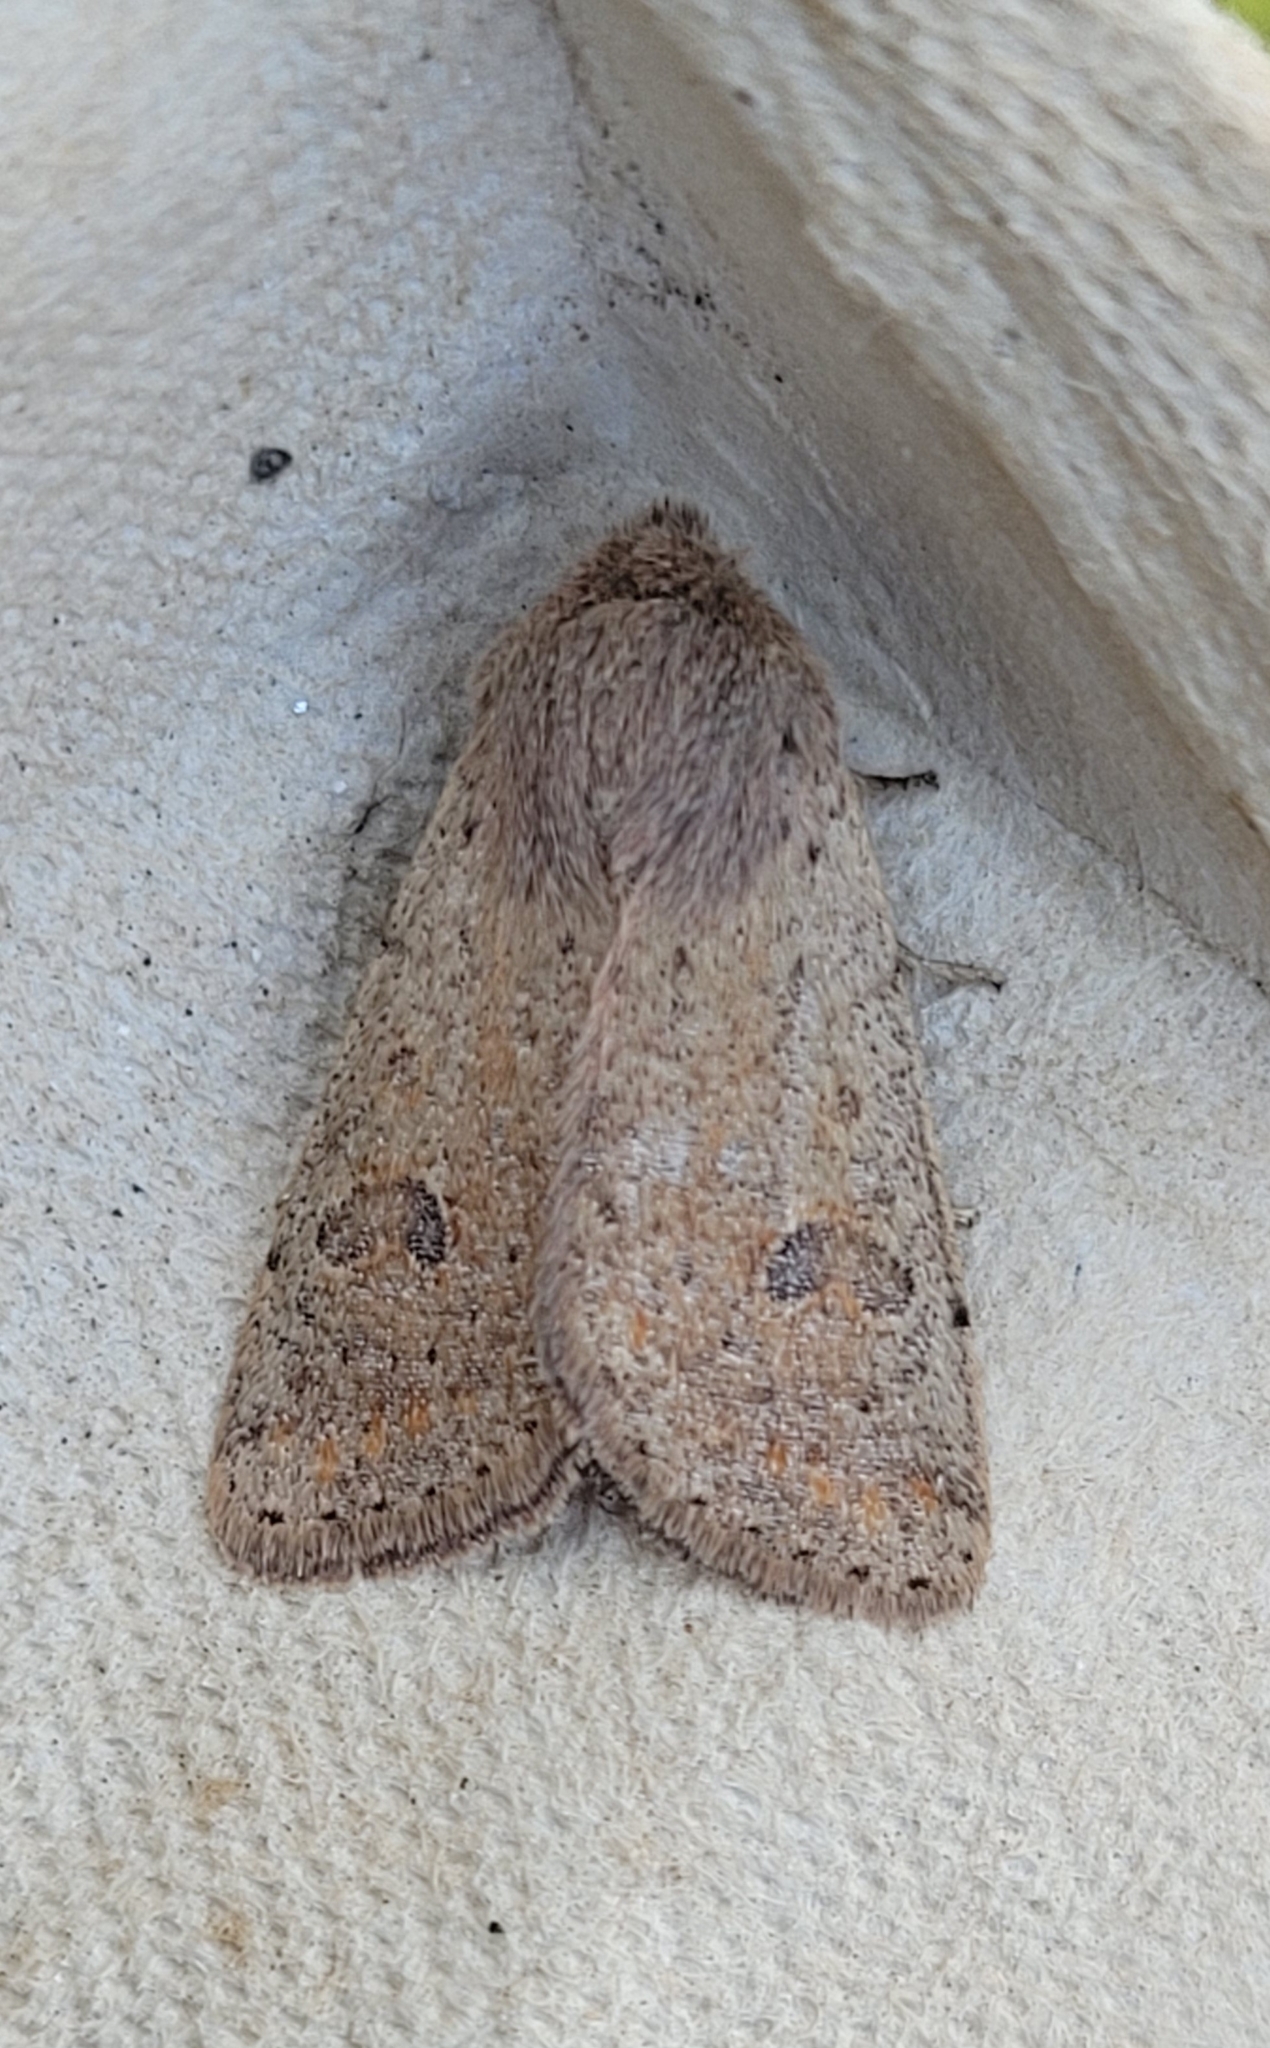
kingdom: Animalia
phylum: Arthropoda
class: Insecta
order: Lepidoptera
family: Noctuidae
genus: Orthosia
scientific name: Orthosia cruda
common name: Small quaker
